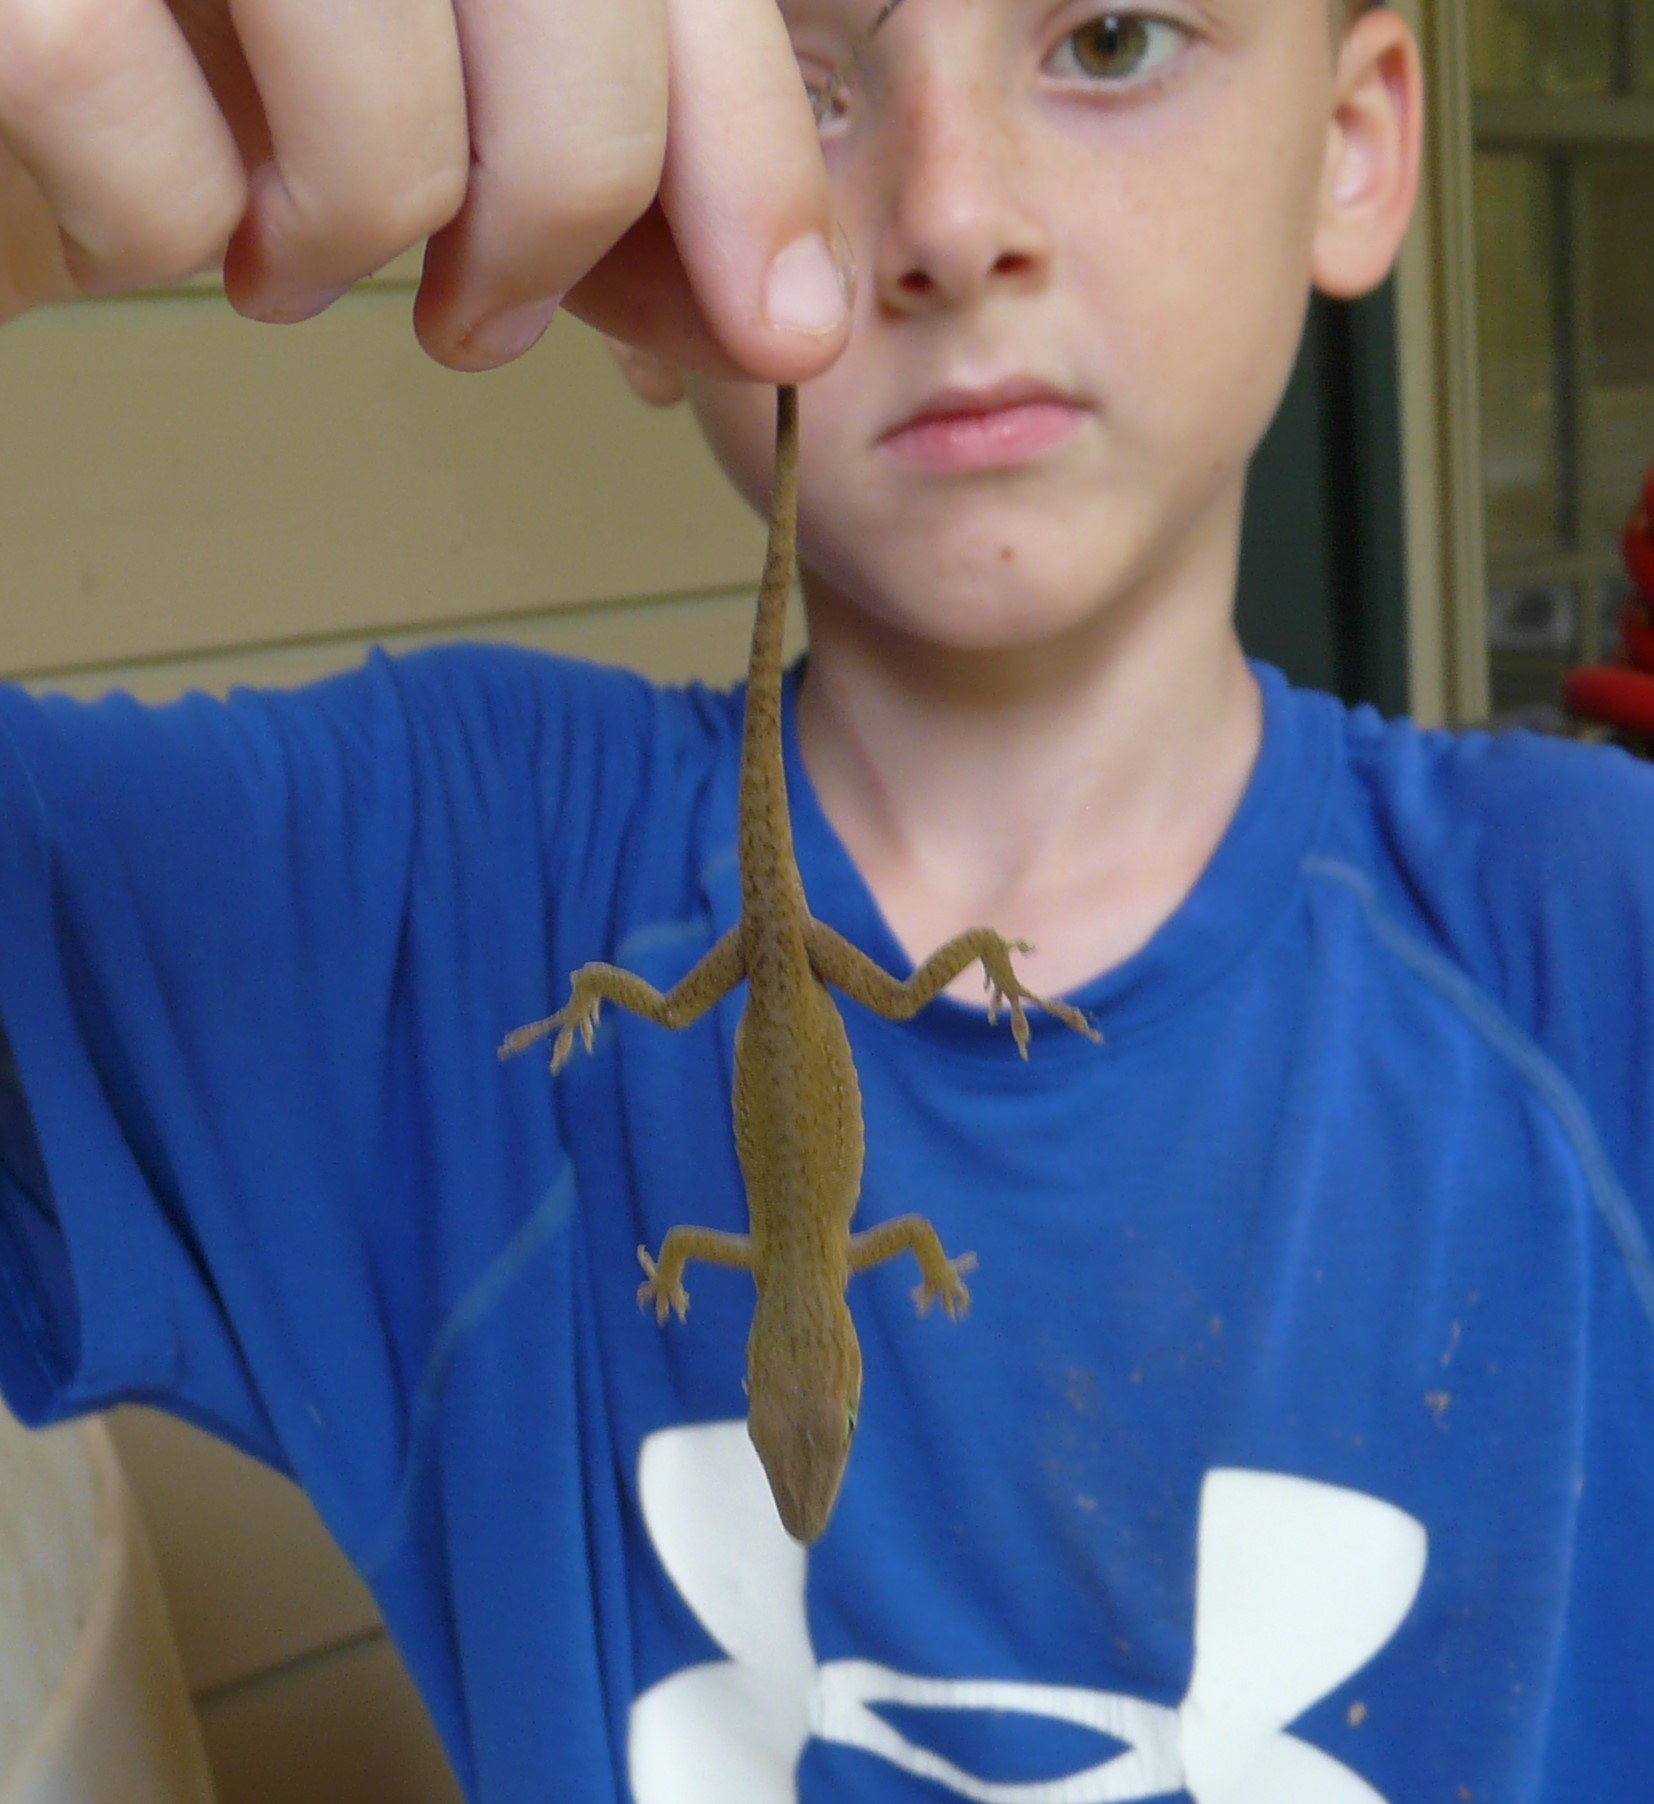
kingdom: Animalia
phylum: Chordata
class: Squamata
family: Dactyloidae
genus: Anolis
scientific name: Anolis carolinensis
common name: Green anole
